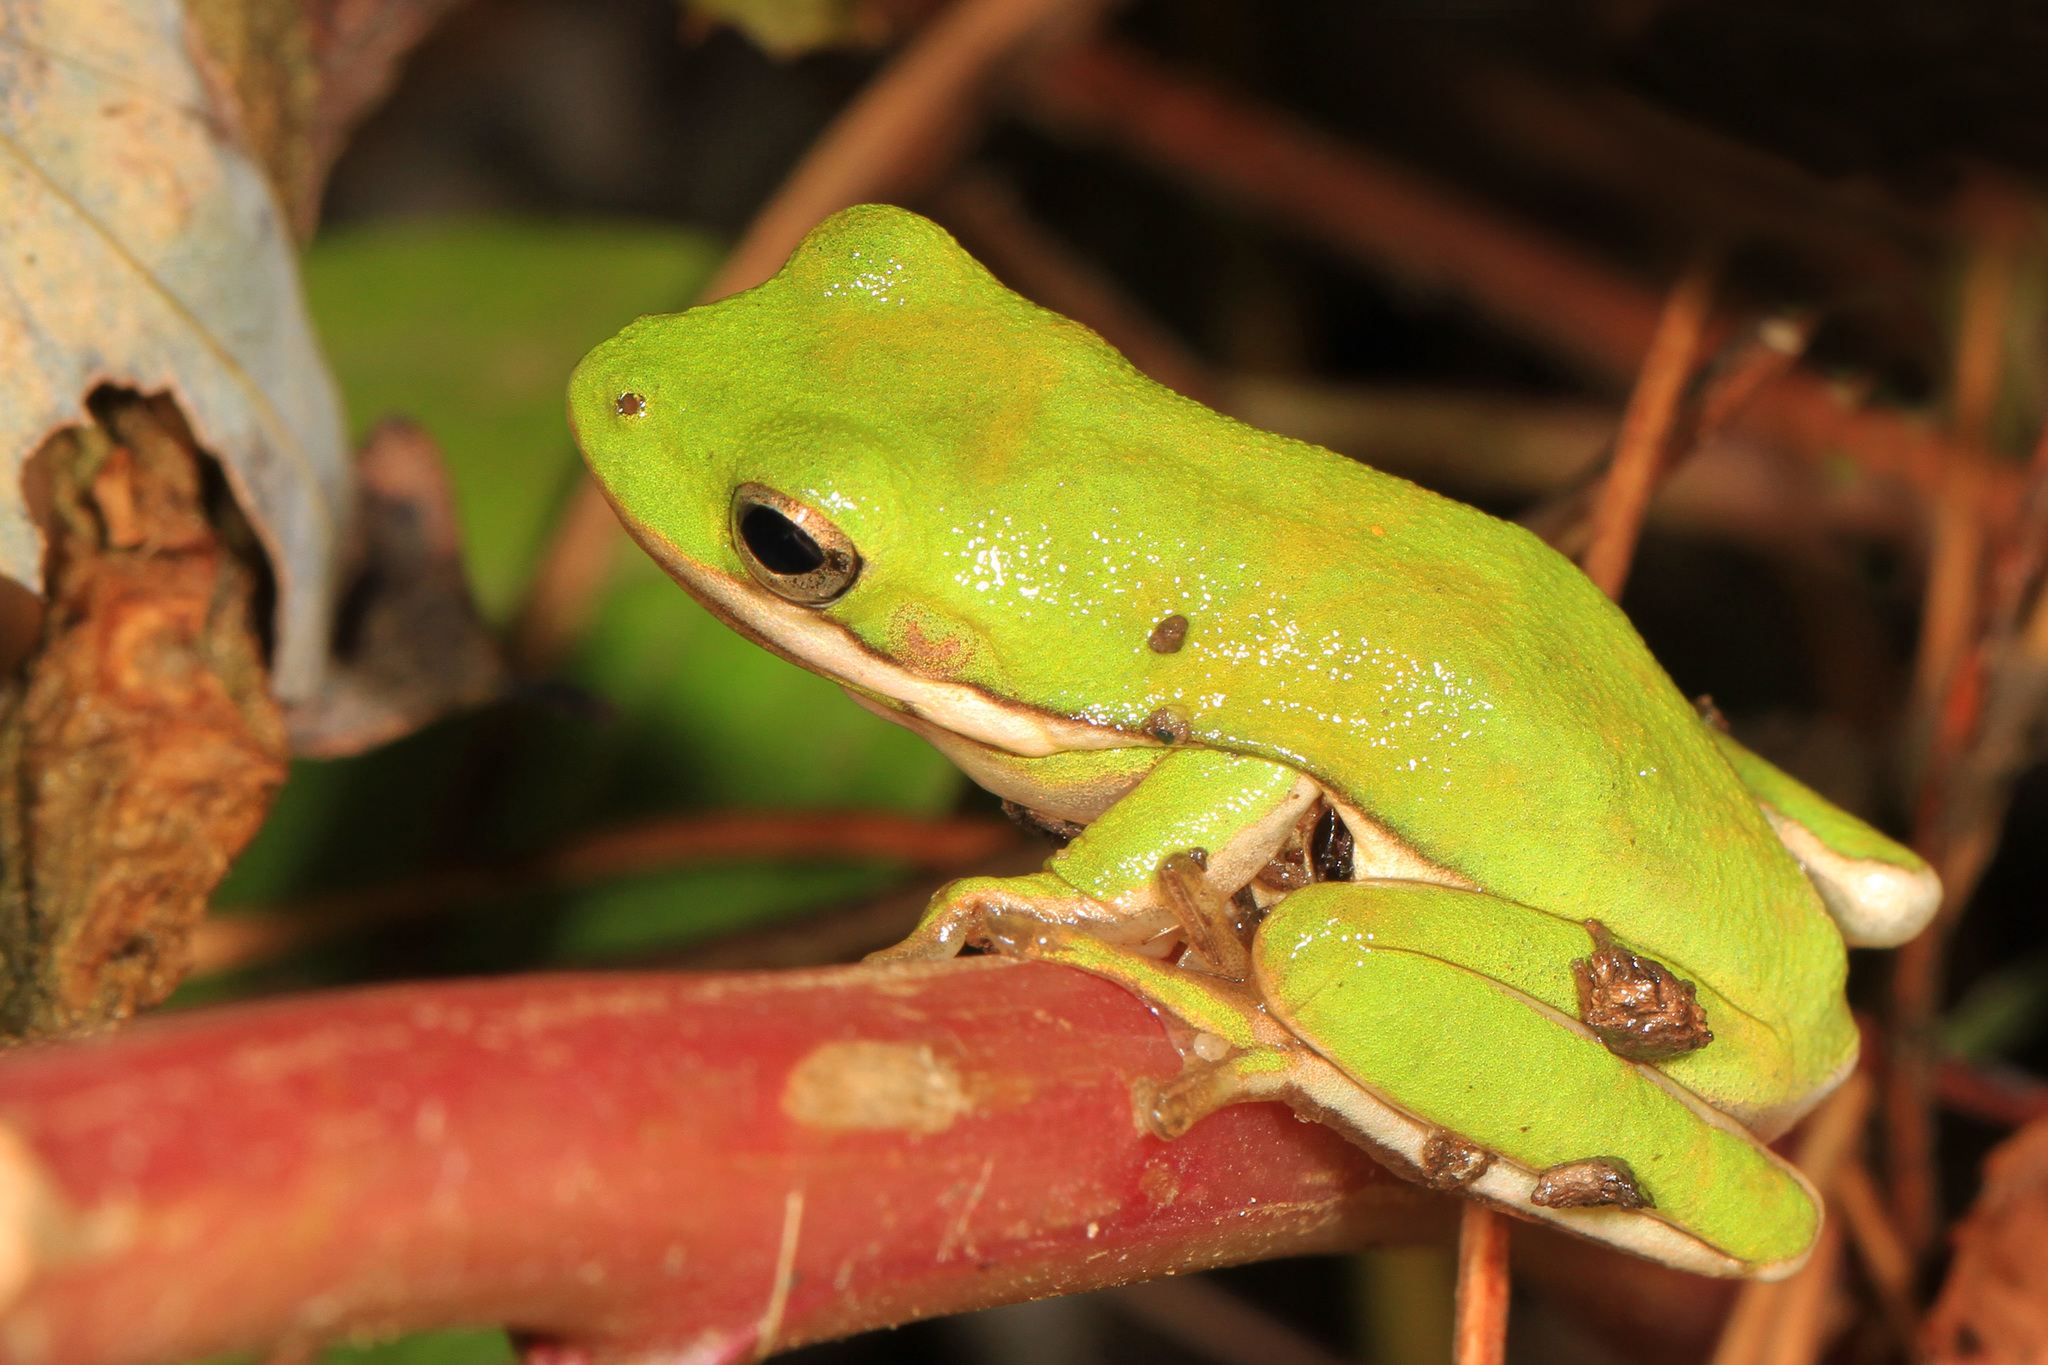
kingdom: Animalia
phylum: Chordata
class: Amphibia
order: Anura
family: Hylidae
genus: Dryophytes
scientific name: Dryophytes cinereus
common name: Green treefrog
